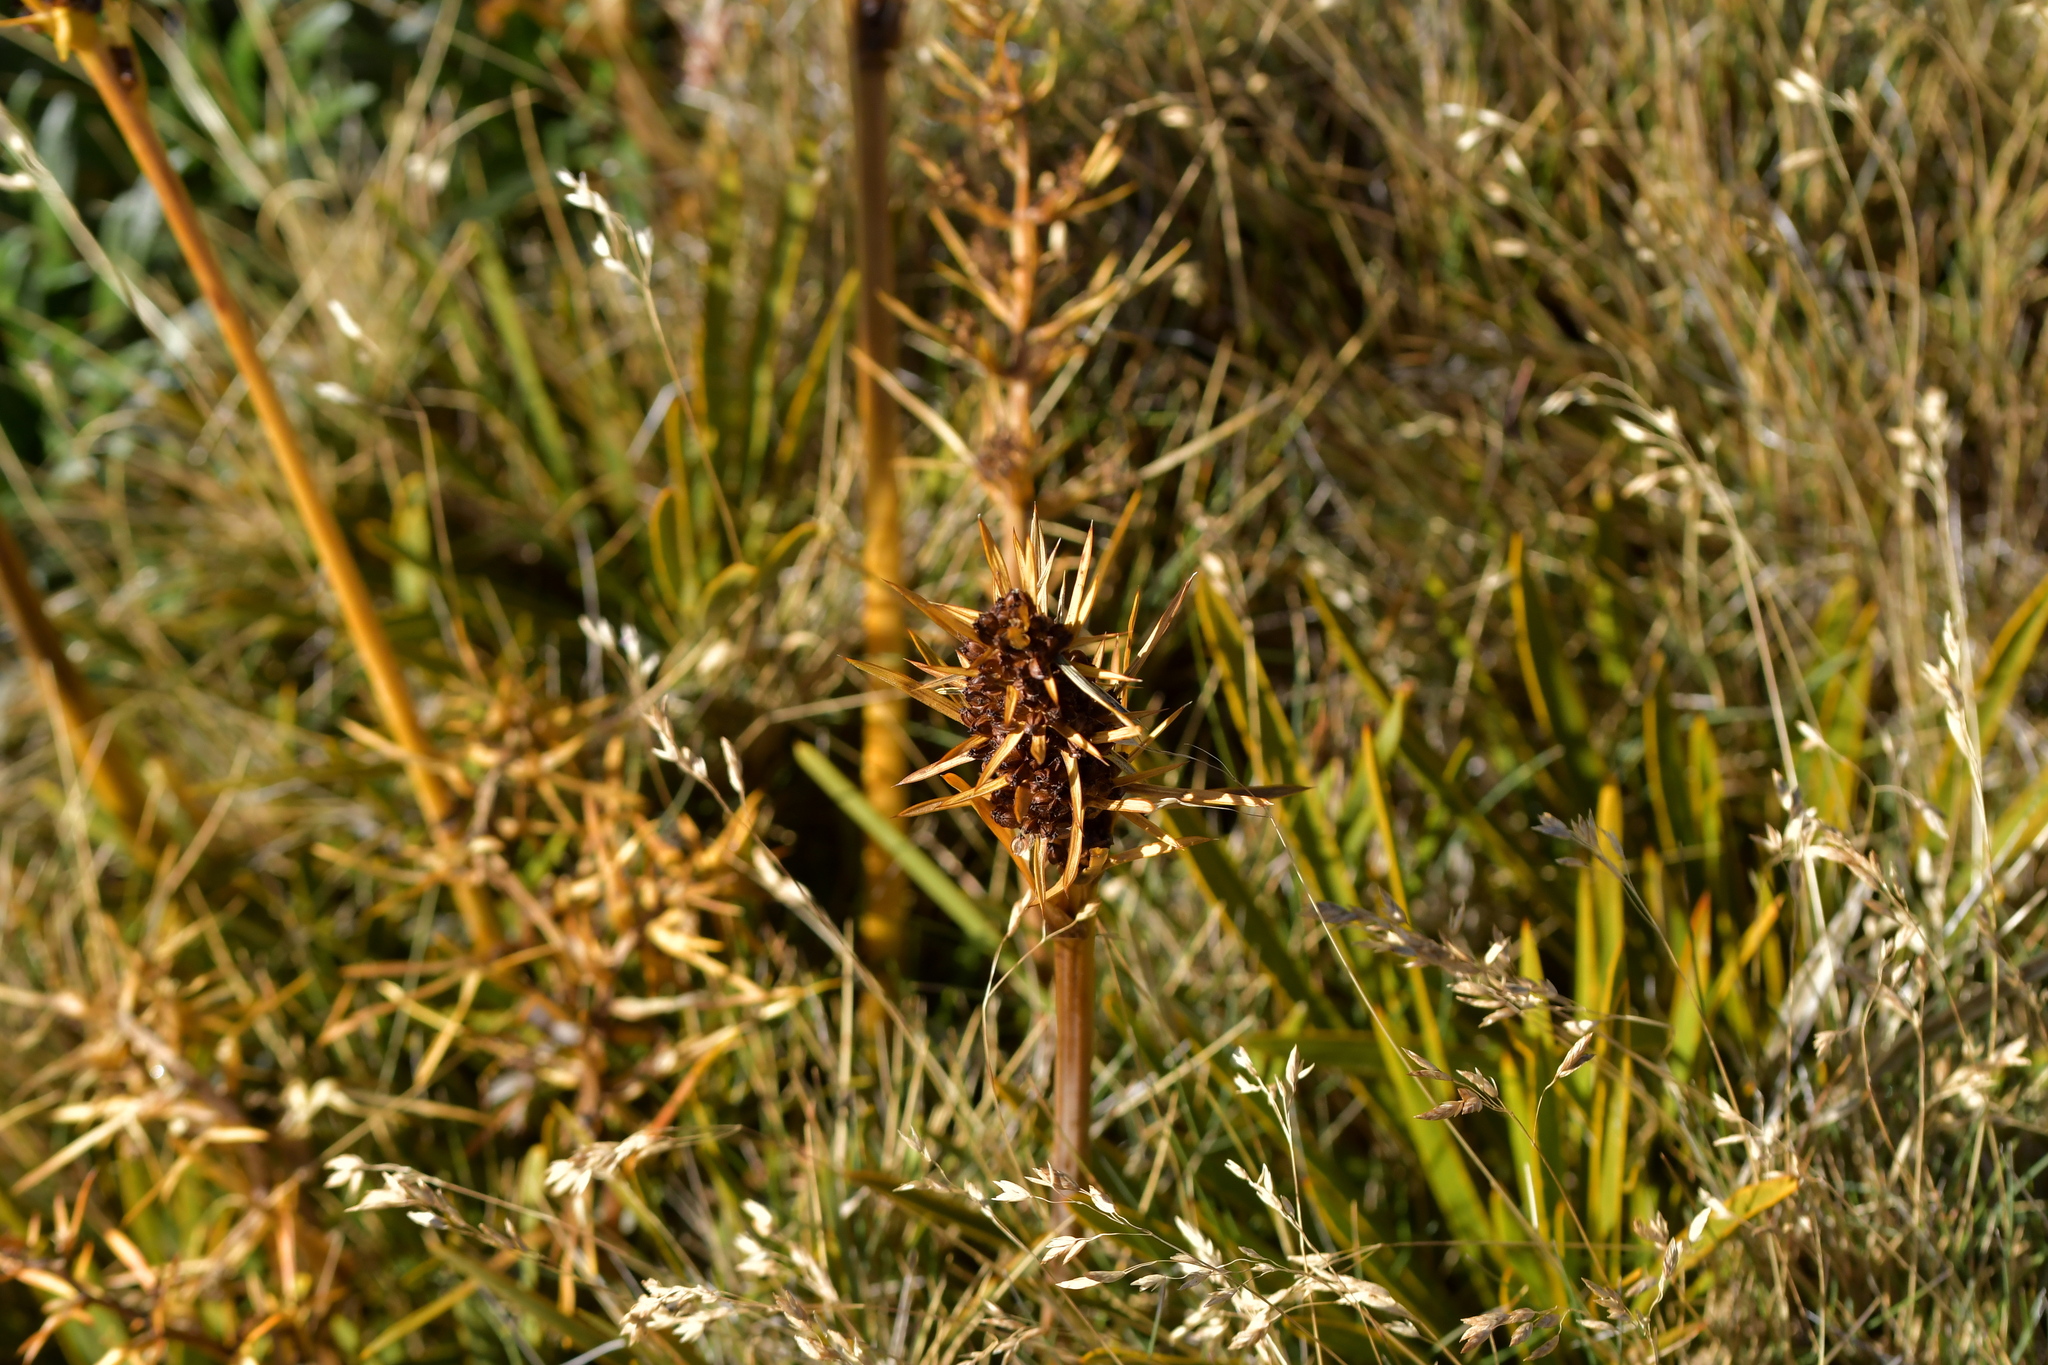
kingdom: Plantae
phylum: Tracheophyta
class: Magnoliopsida
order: Apiales
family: Apiaceae
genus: Aciphylla
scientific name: Aciphylla verticillata
